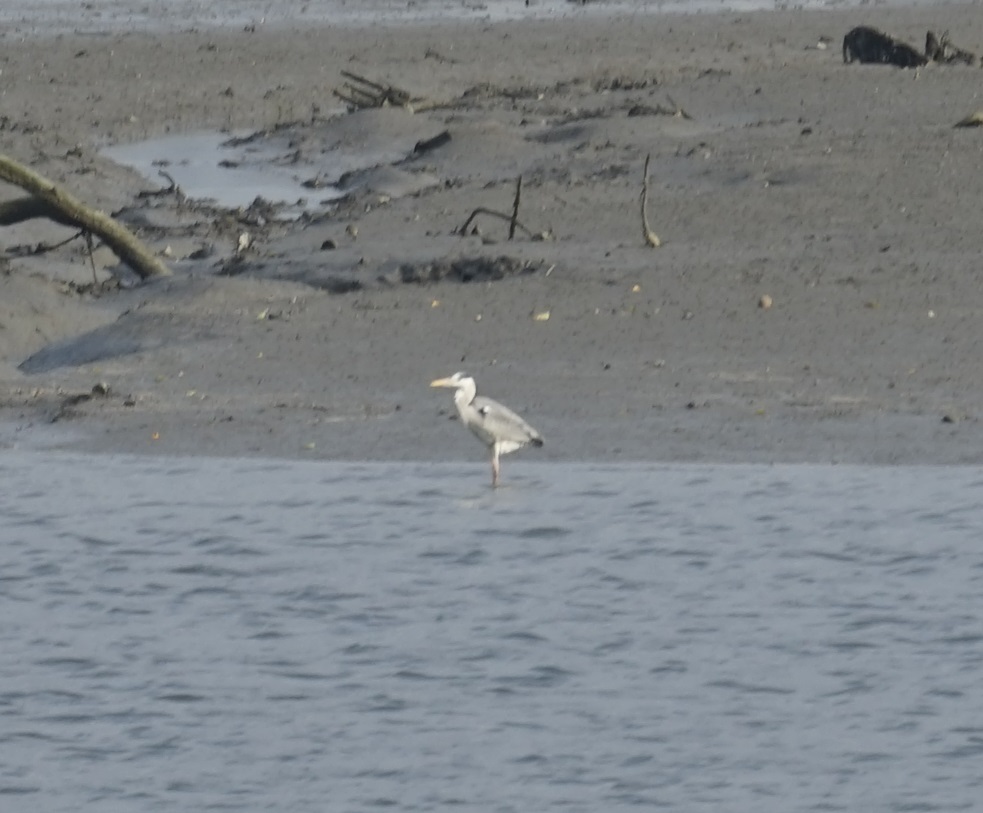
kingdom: Animalia
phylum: Chordata
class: Aves
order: Pelecaniformes
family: Ardeidae
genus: Ardea
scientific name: Ardea cinerea
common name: Grey heron
